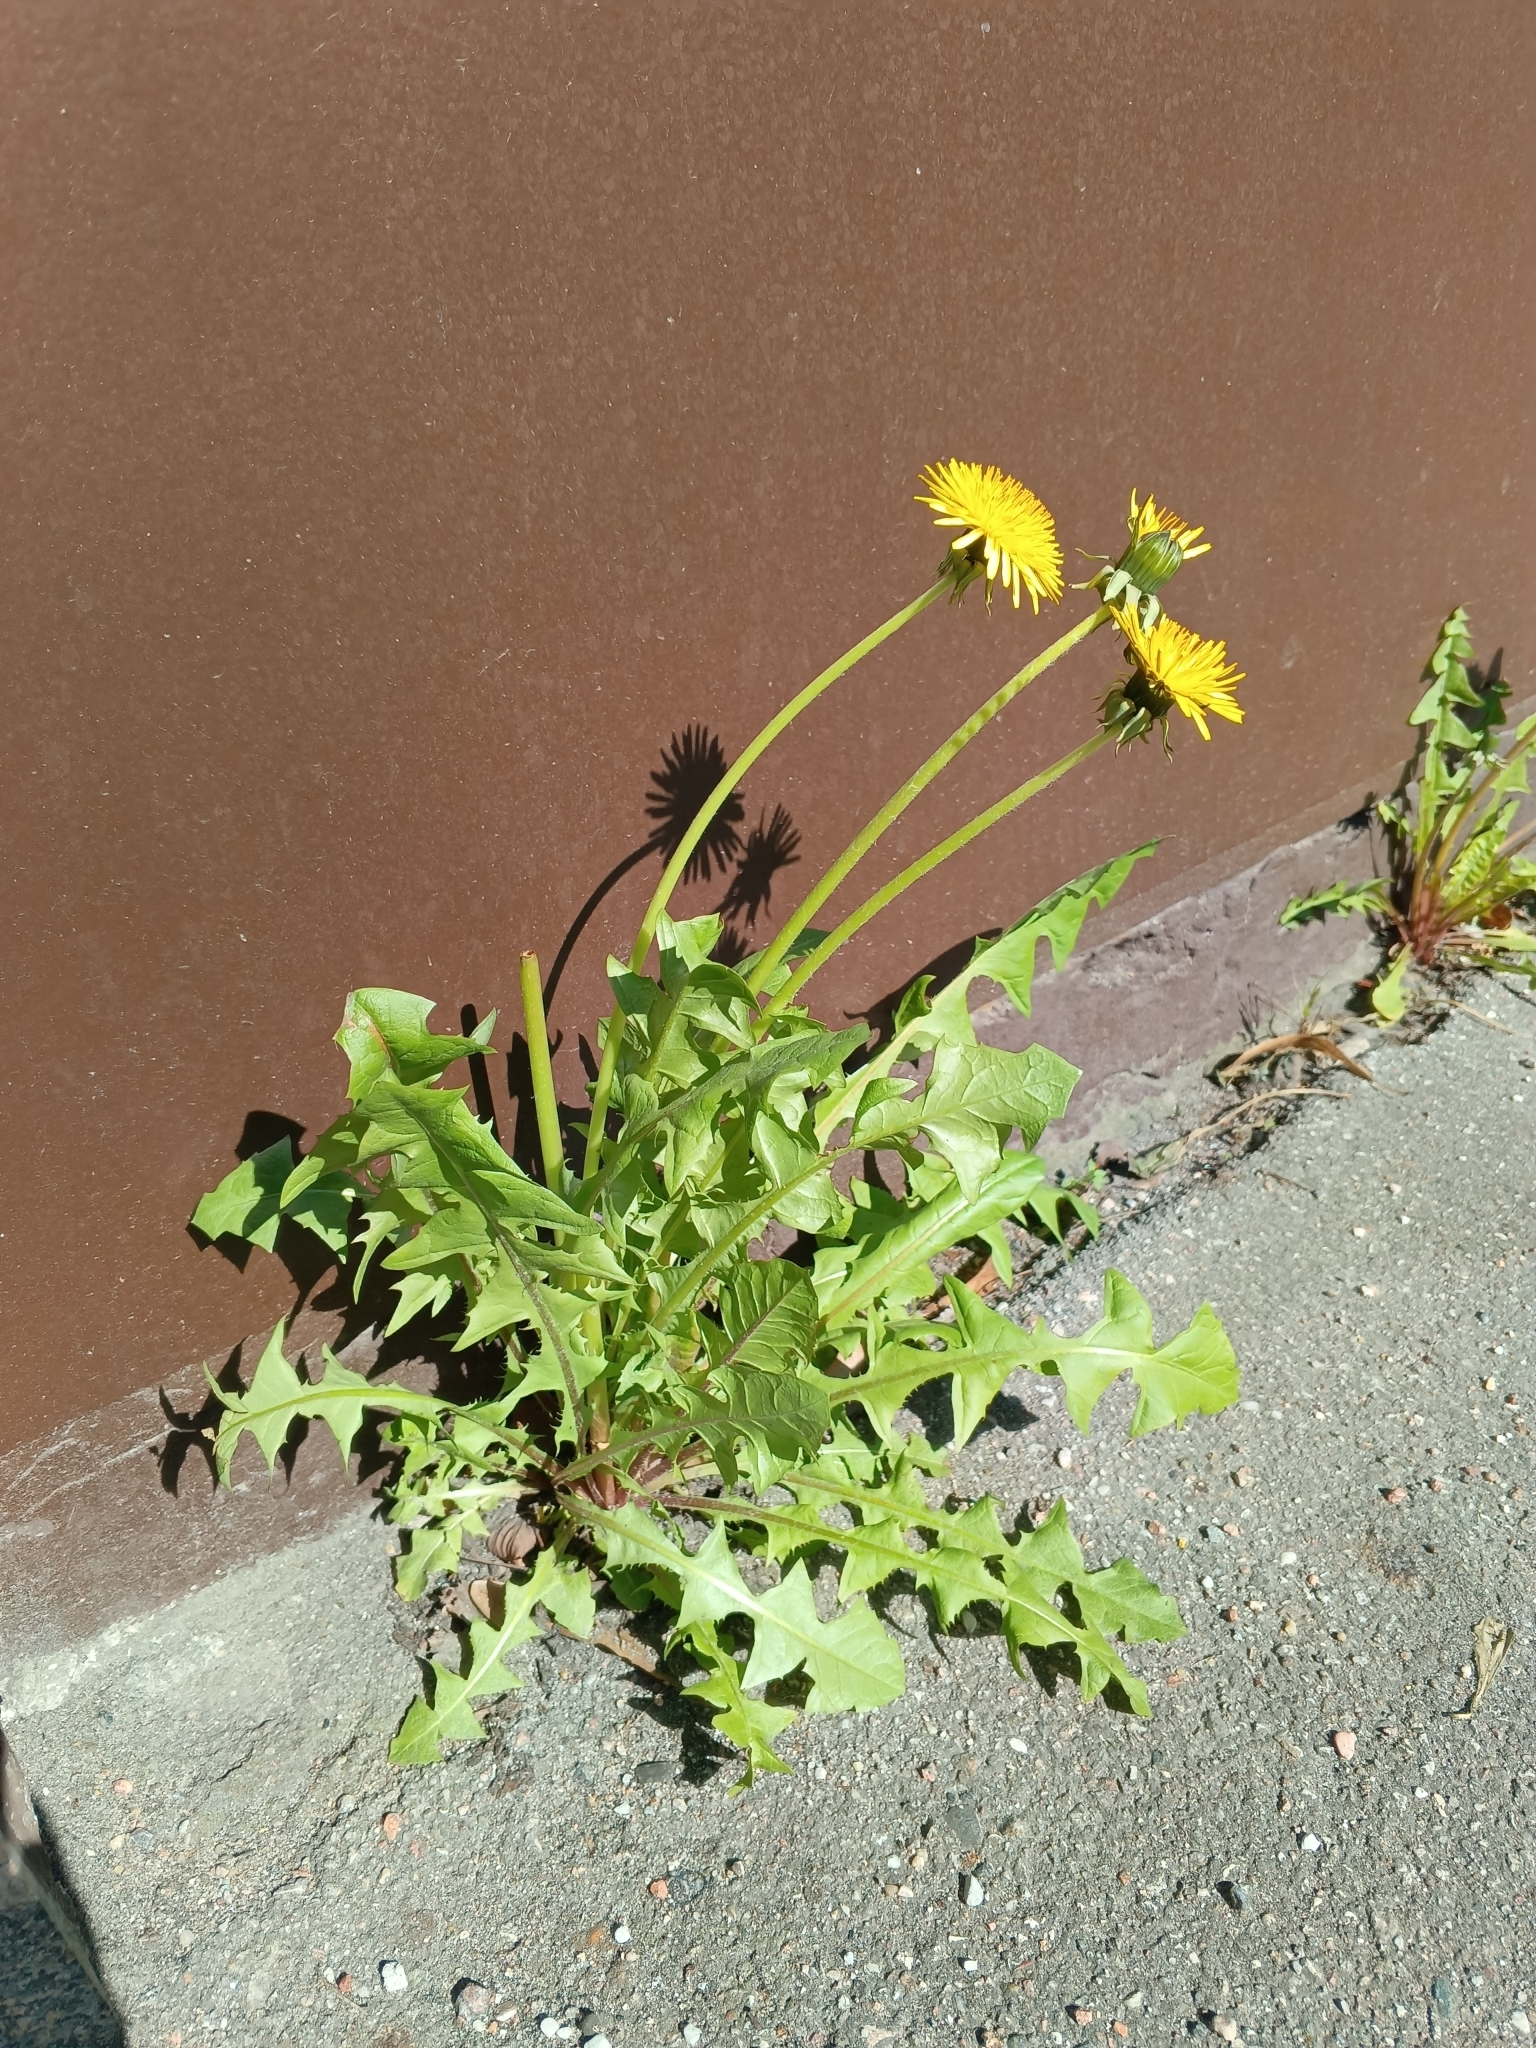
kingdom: Plantae
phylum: Tracheophyta
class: Magnoliopsida
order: Asterales
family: Asteraceae
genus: Taraxacum
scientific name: Taraxacum officinale
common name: Common dandelion
